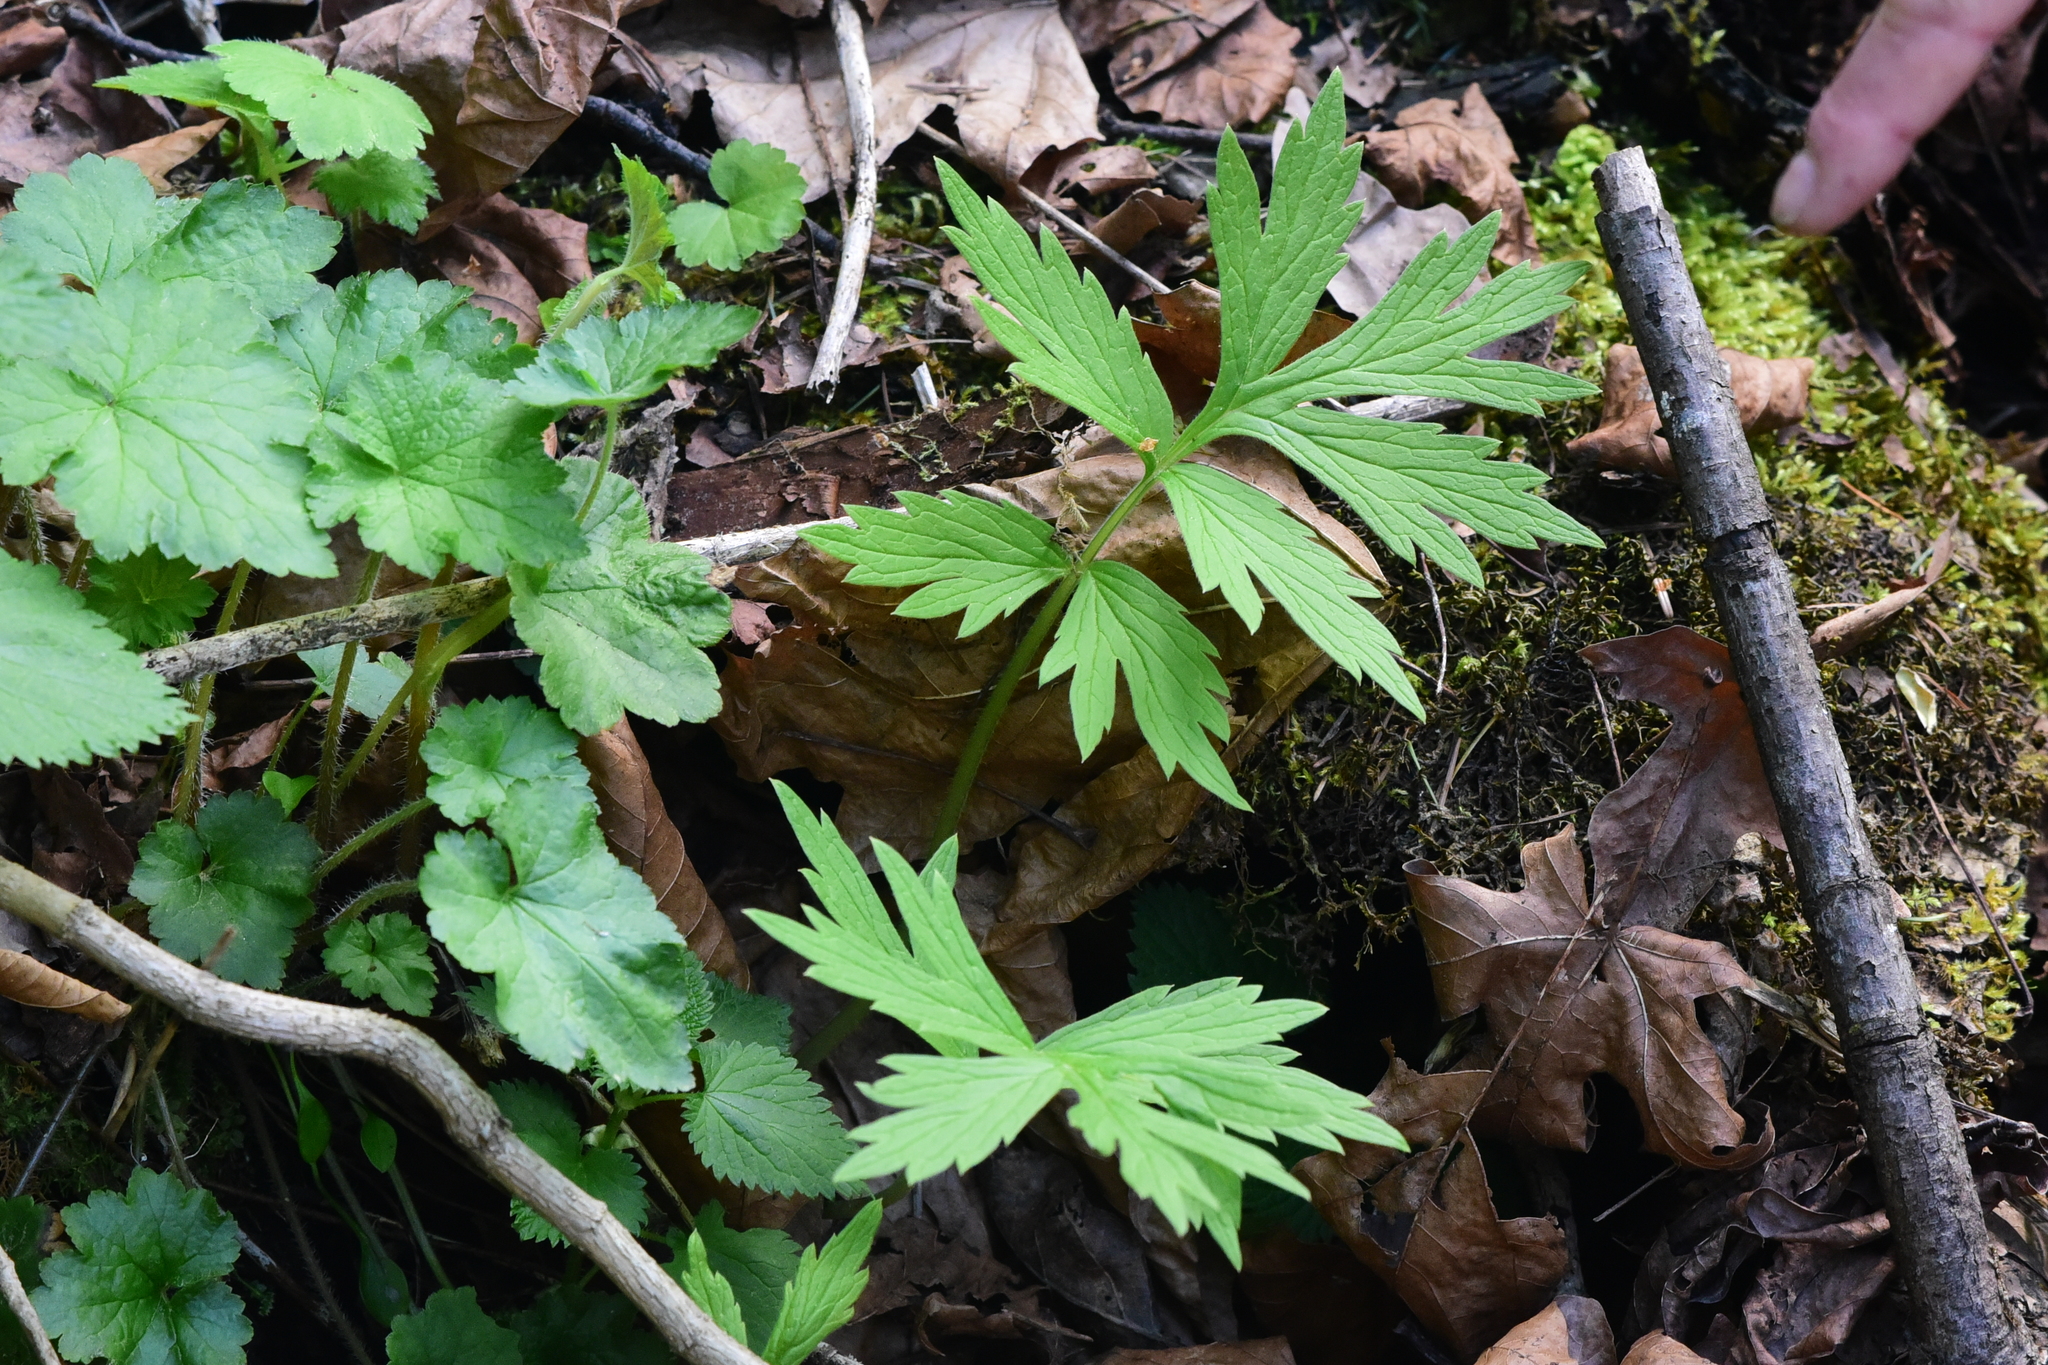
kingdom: Plantae
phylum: Tracheophyta
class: Magnoliopsida
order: Boraginales
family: Hydrophyllaceae
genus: Hydrophyllum
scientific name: Hydrophyllum fendleri
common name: Fendler's waterleaf
